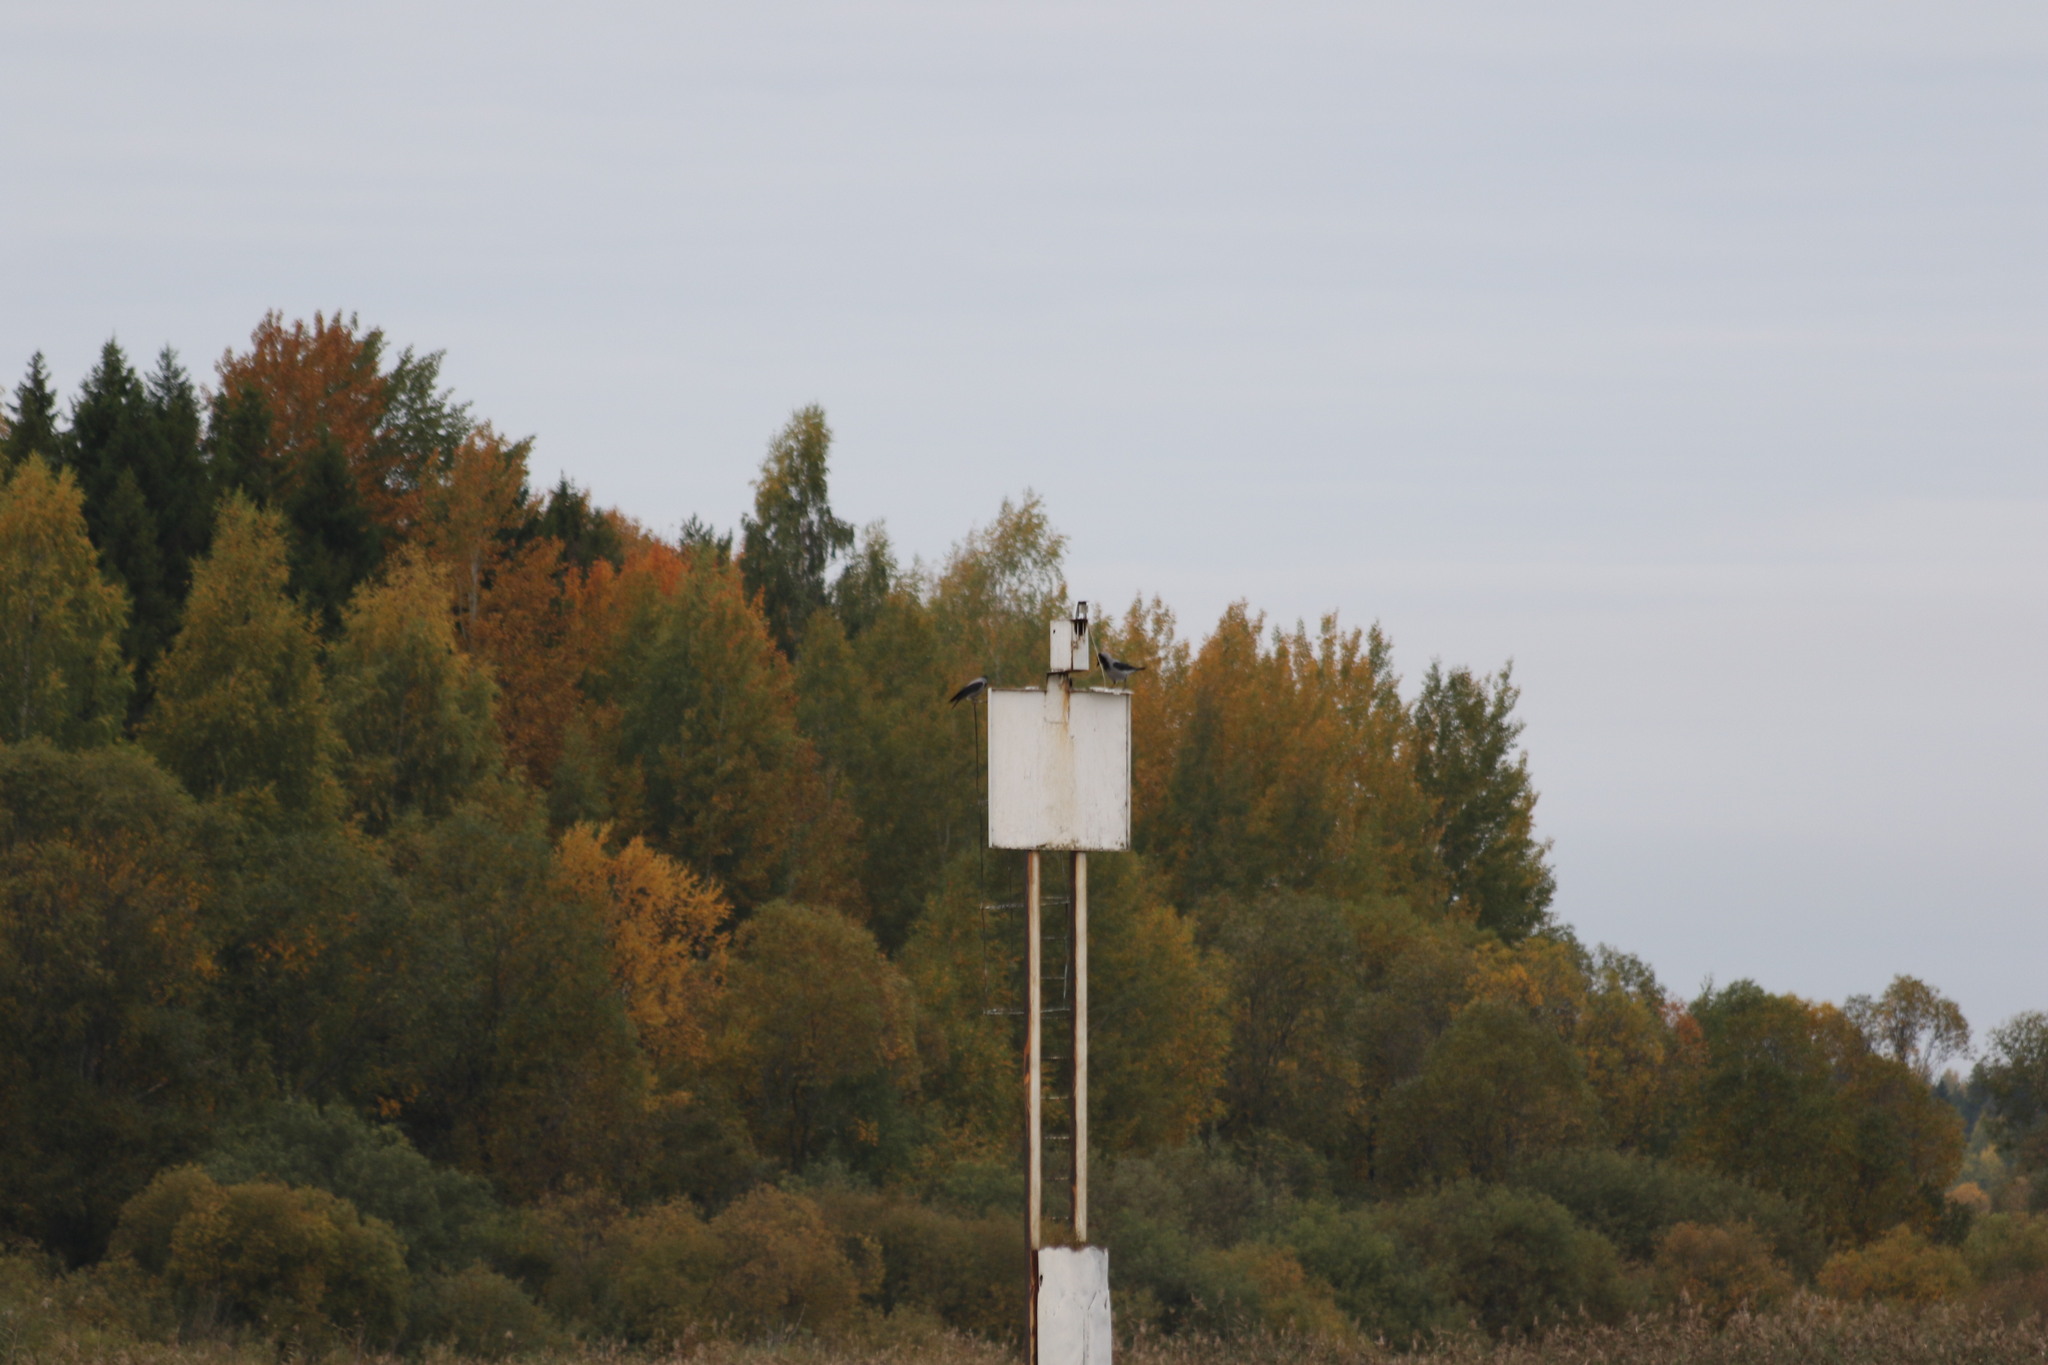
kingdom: Animalia
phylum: Chordata
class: Aves
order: Passeriformes
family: Corvidae
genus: Corvus
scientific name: Corvus cornix
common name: Hooded crow
